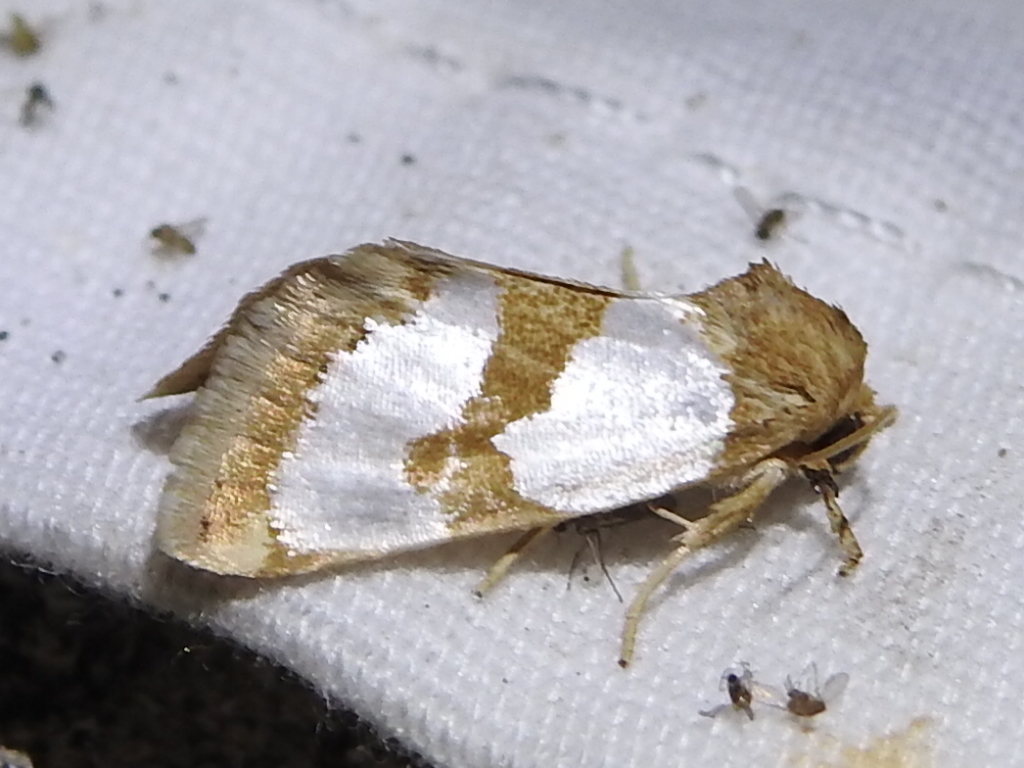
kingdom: Animalia
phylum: Arthropoda
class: Insecta
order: Lepidoptera
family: Noctuidae
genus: Schinia
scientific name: Schinia chrysellus
